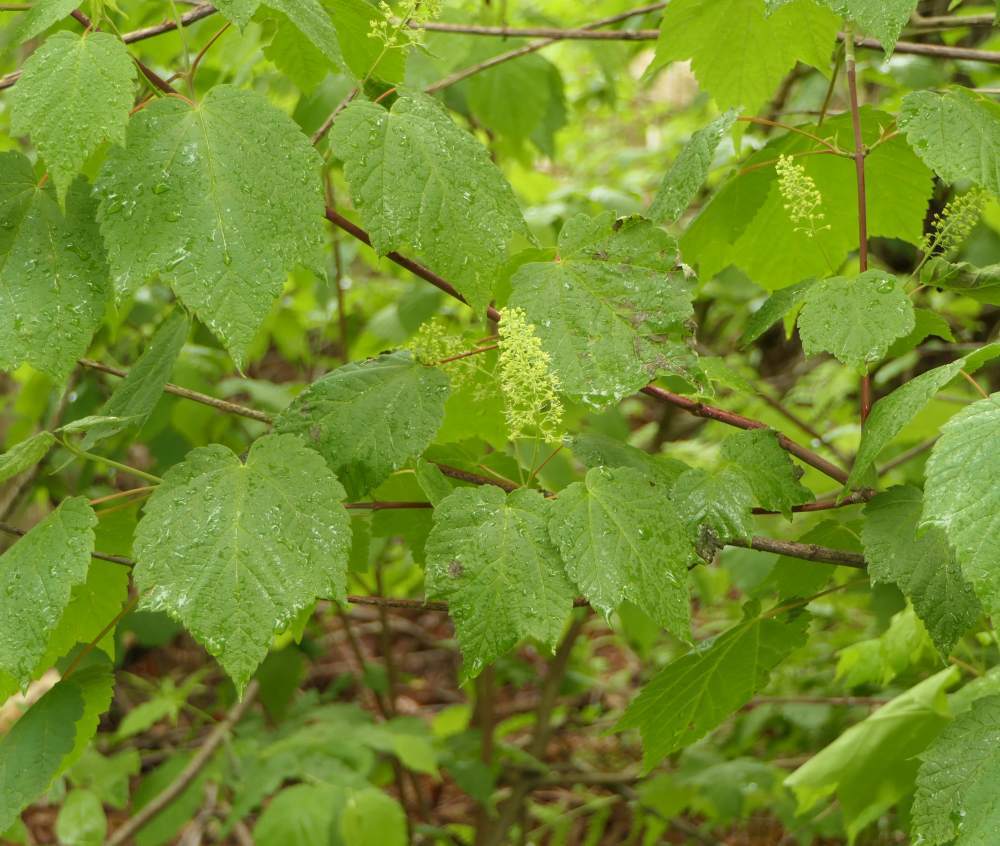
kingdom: Plantae
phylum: Tracheophyta
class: Magnoliopsida
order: Sapindales
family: Sapindaceae
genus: Acer
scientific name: Acer spicatum
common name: Mountain maple
